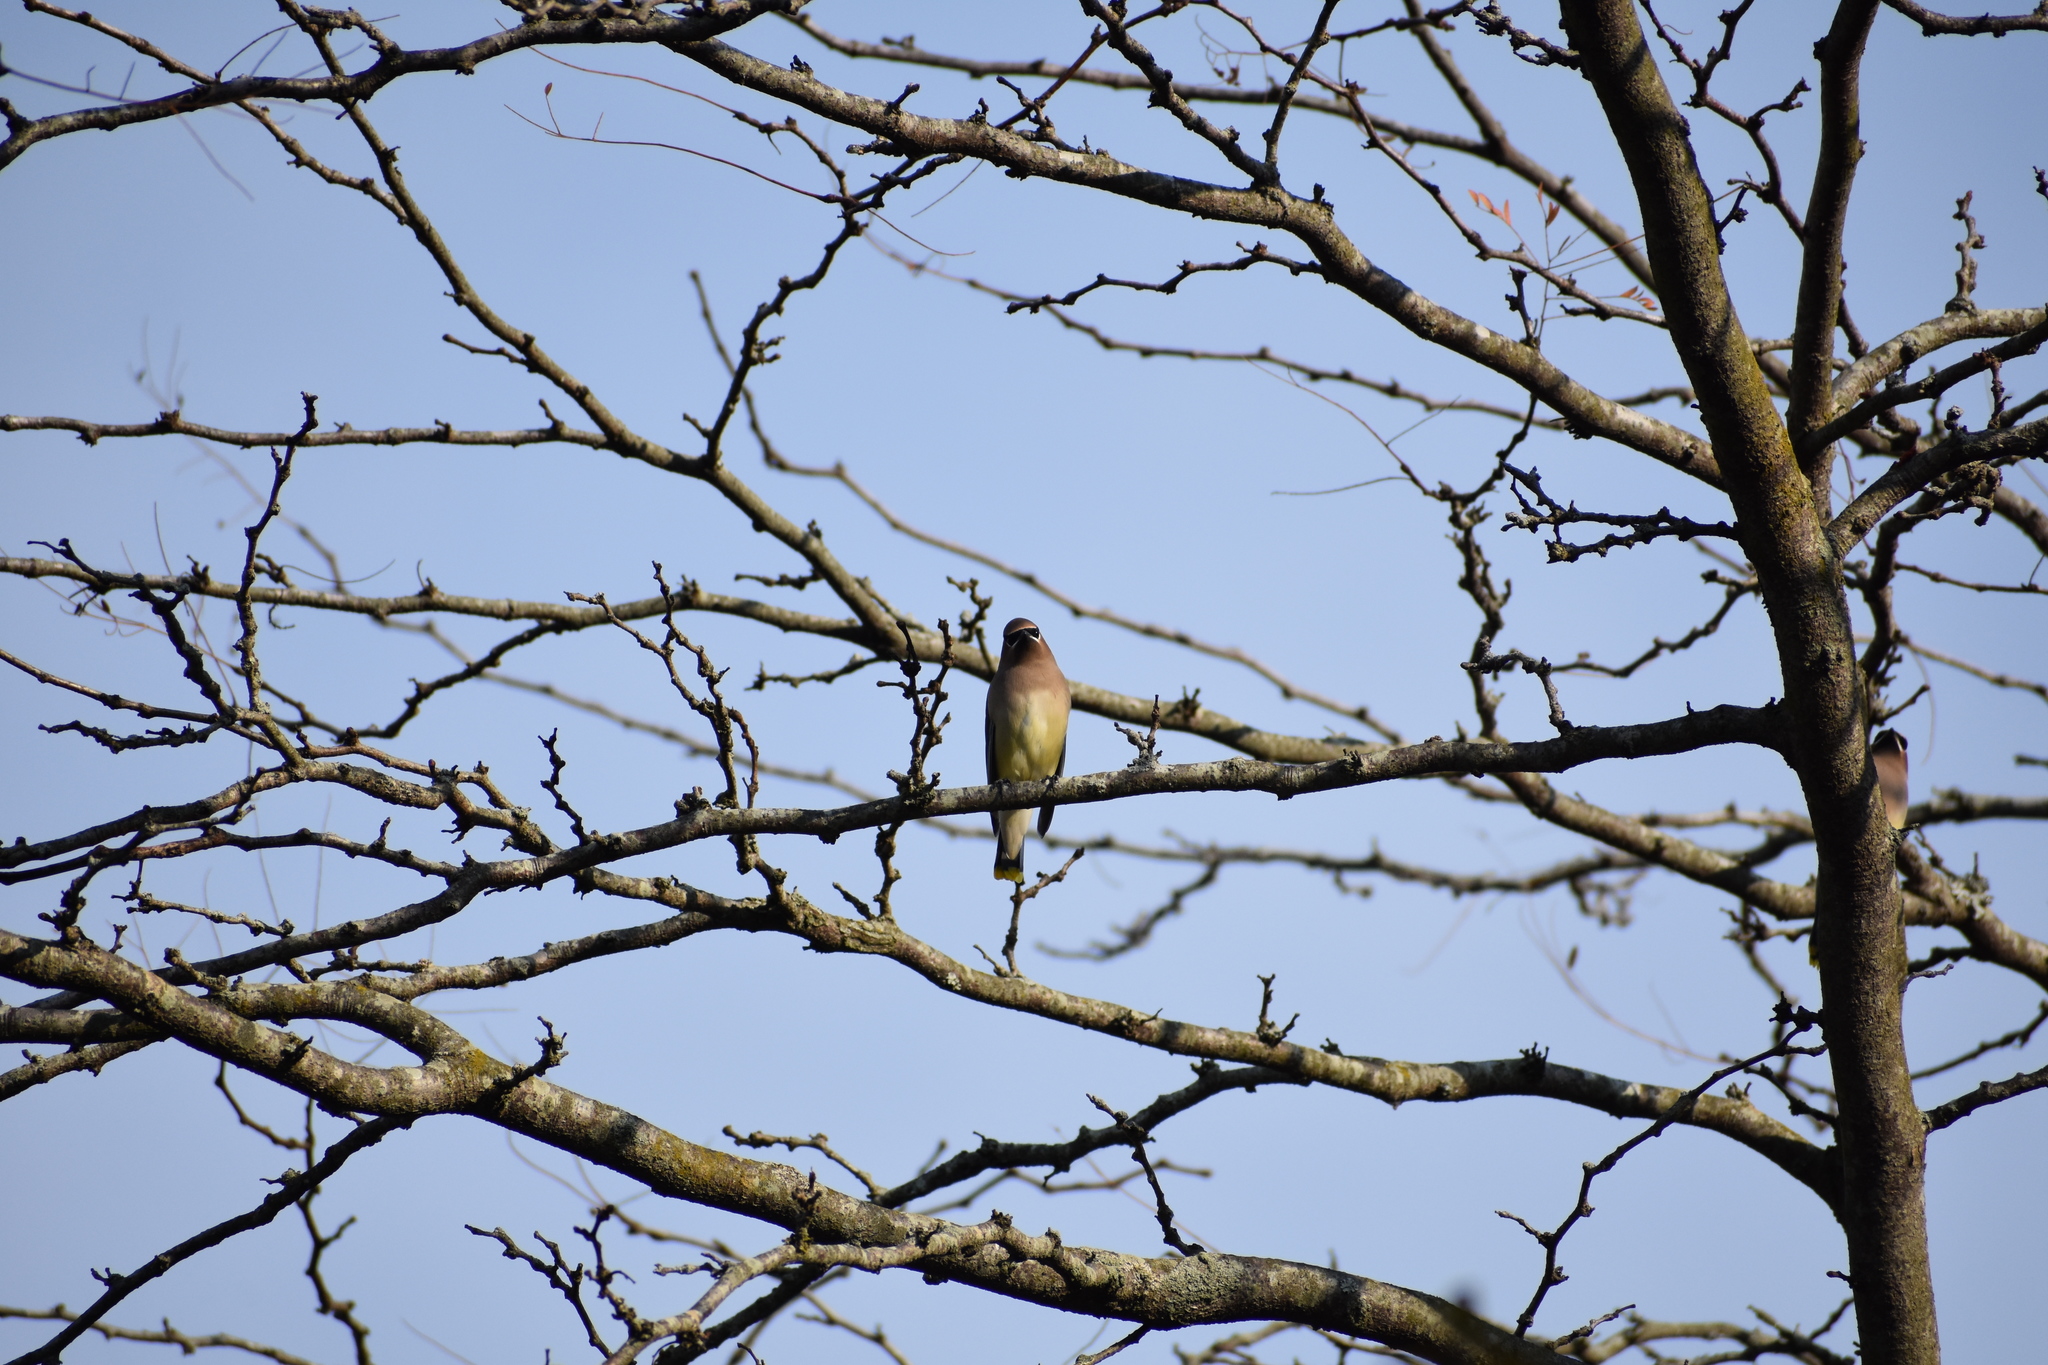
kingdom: Animalia
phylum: Chordata
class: Aves
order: Passeriformes
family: Bombycillidae
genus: Bombycilla
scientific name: Bombycilla cedrorum
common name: Cedar waxwing
